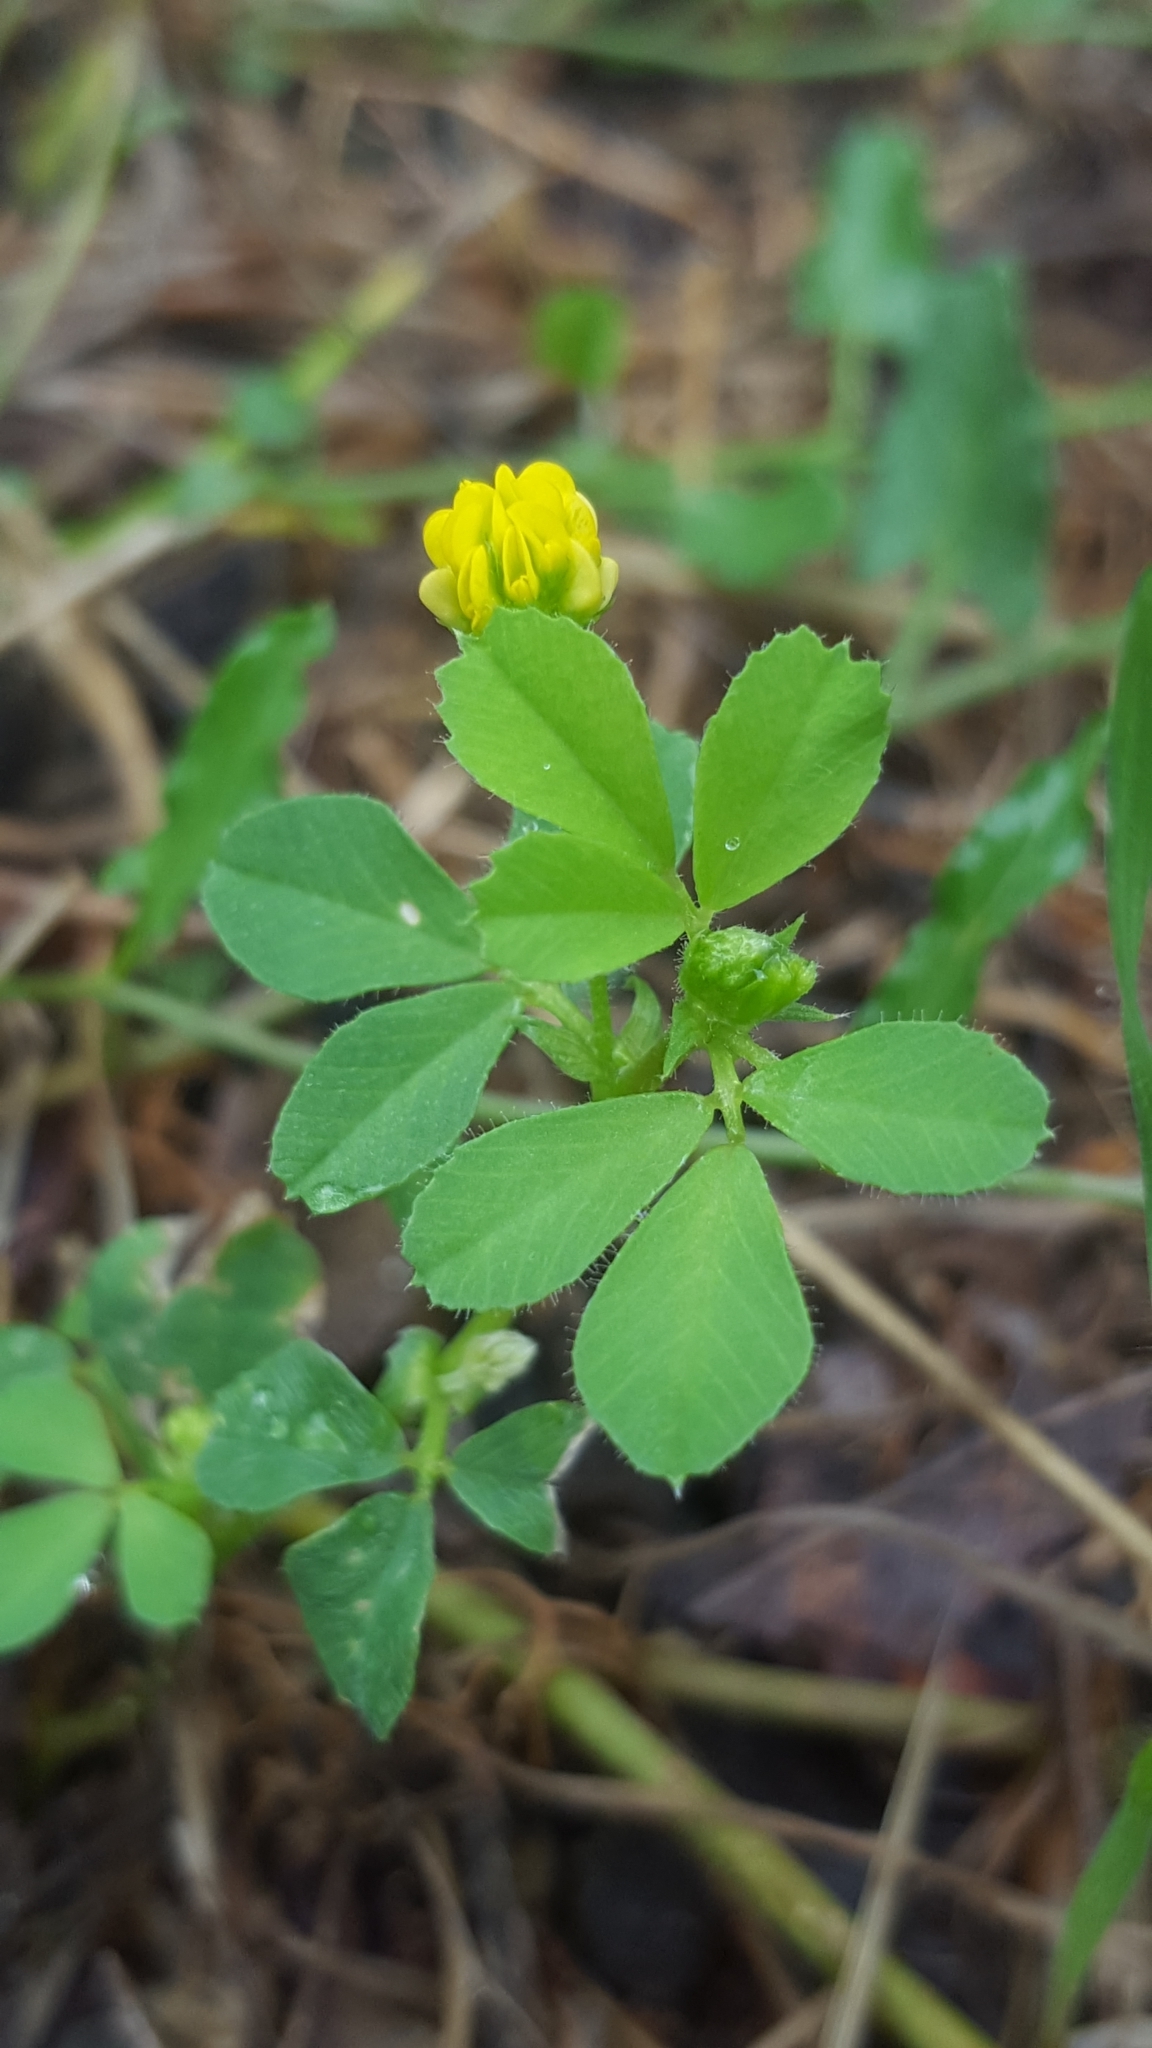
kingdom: Plantae
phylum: Tracheophyta
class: Magnoliopsida
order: Fabales
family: Fabaceae
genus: Medicago
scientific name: Medicago lupulina
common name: Black medick
